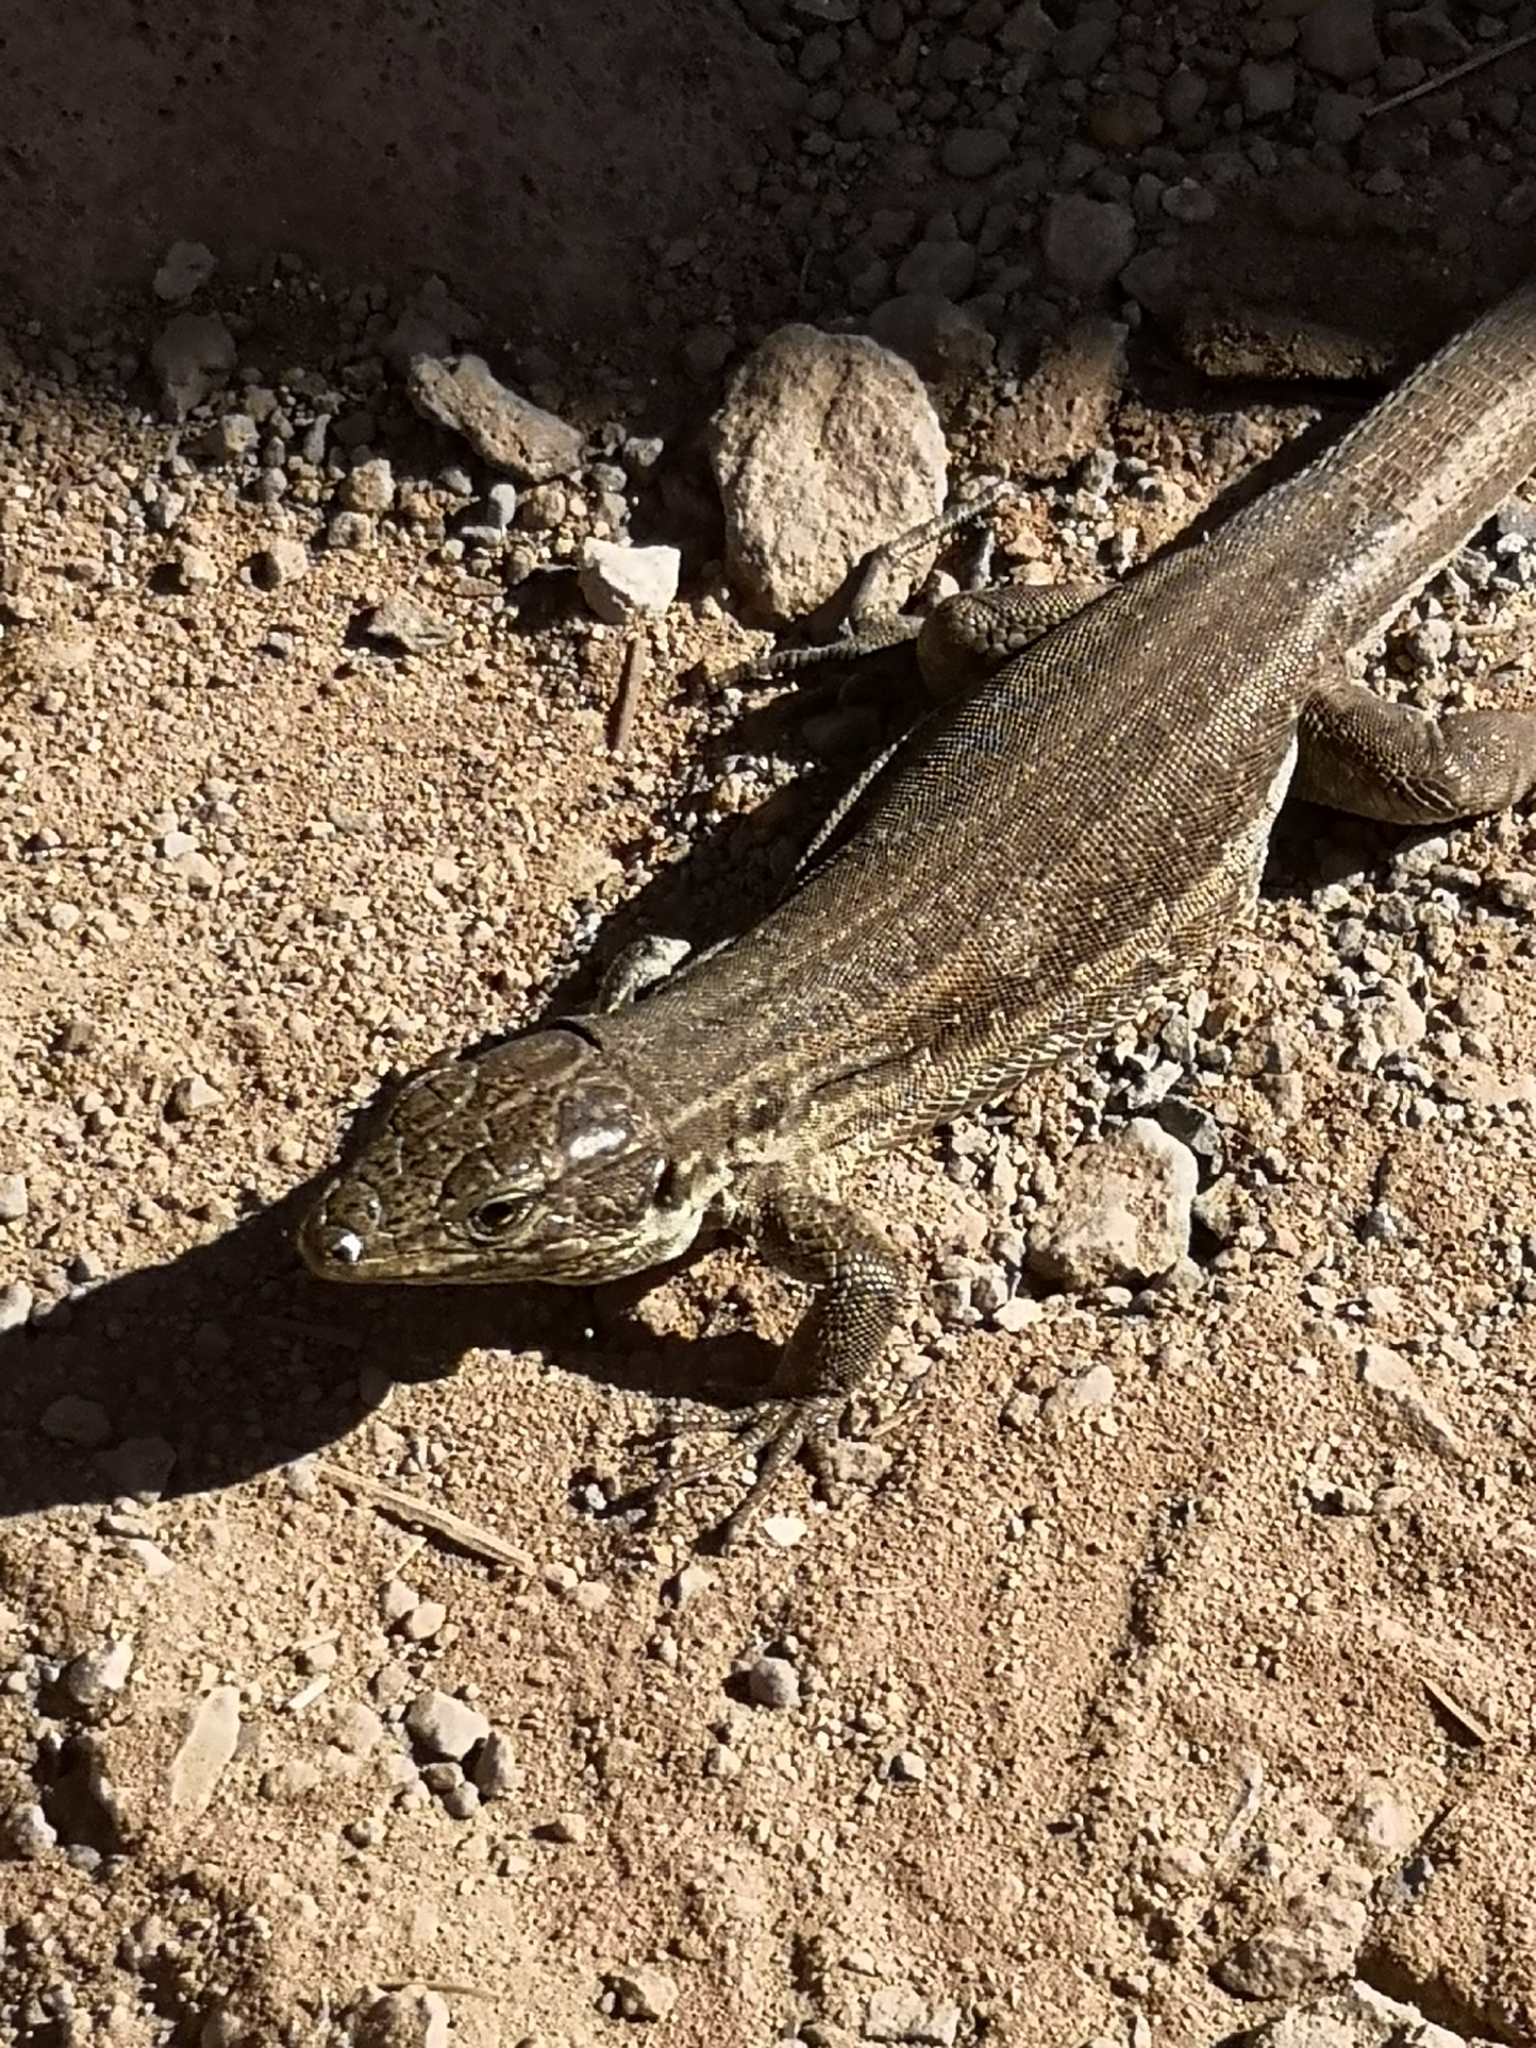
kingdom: Animalia
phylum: Chordata
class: Squamata
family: Lacertidae
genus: Gallotia
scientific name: Gallotia galloti
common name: Gallot's lizard
